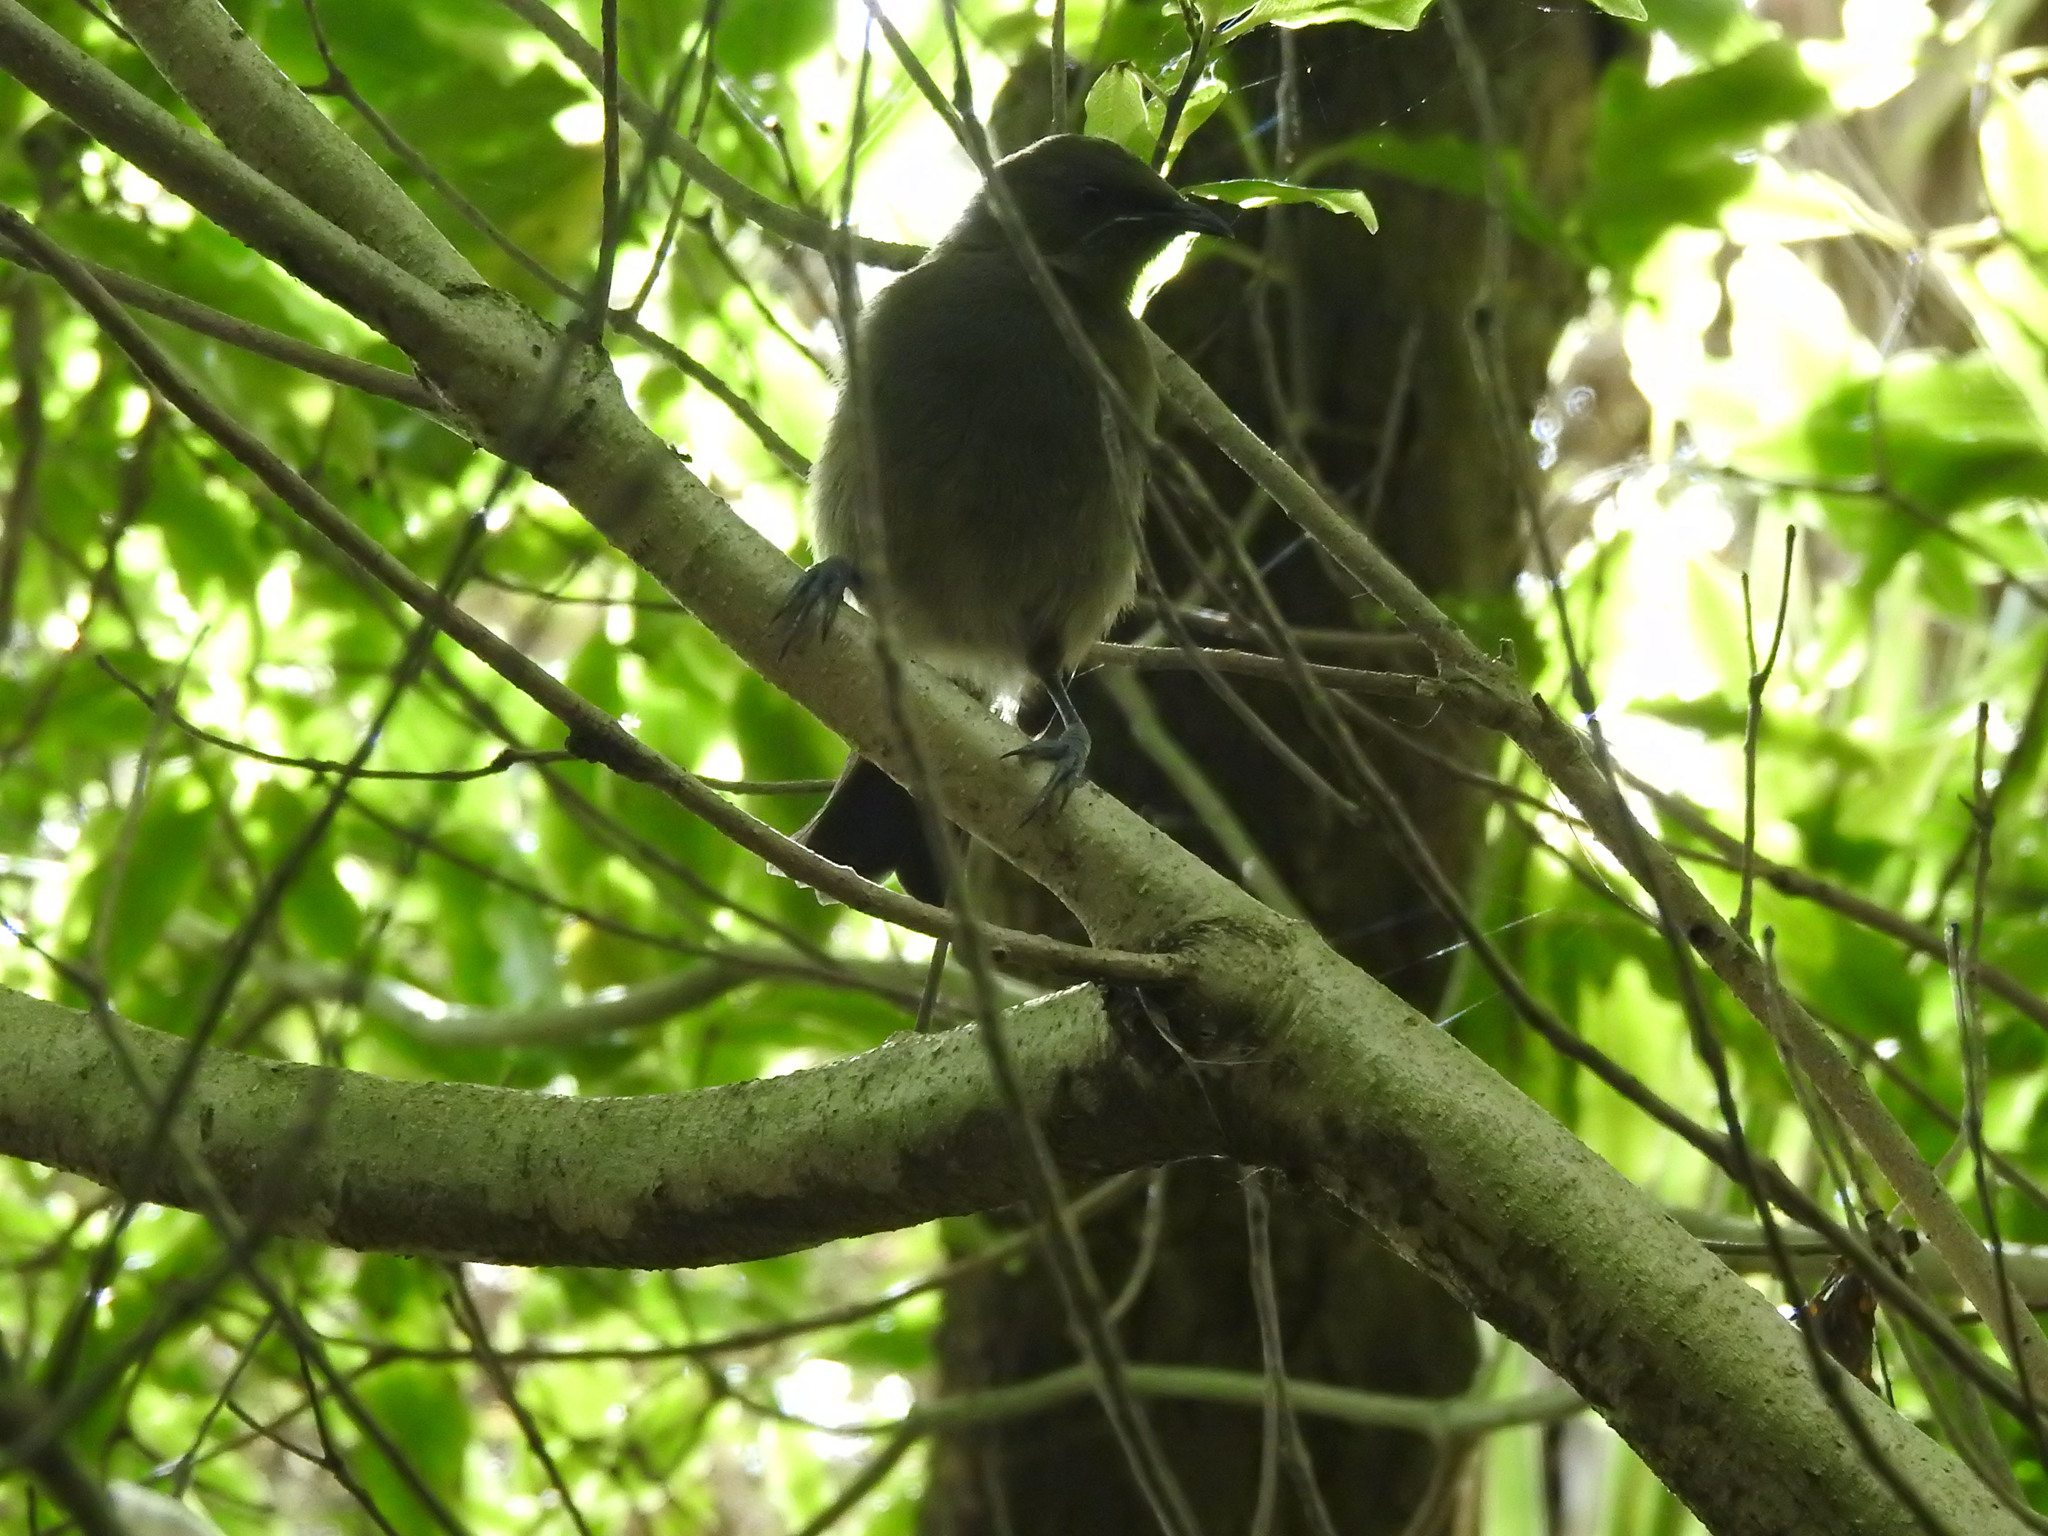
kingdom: Animalia
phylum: Chordata
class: Aves
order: Passeriformes
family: Meliphagidae
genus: Anthornis
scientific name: Anthornis melanura
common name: New zealand bellbird
